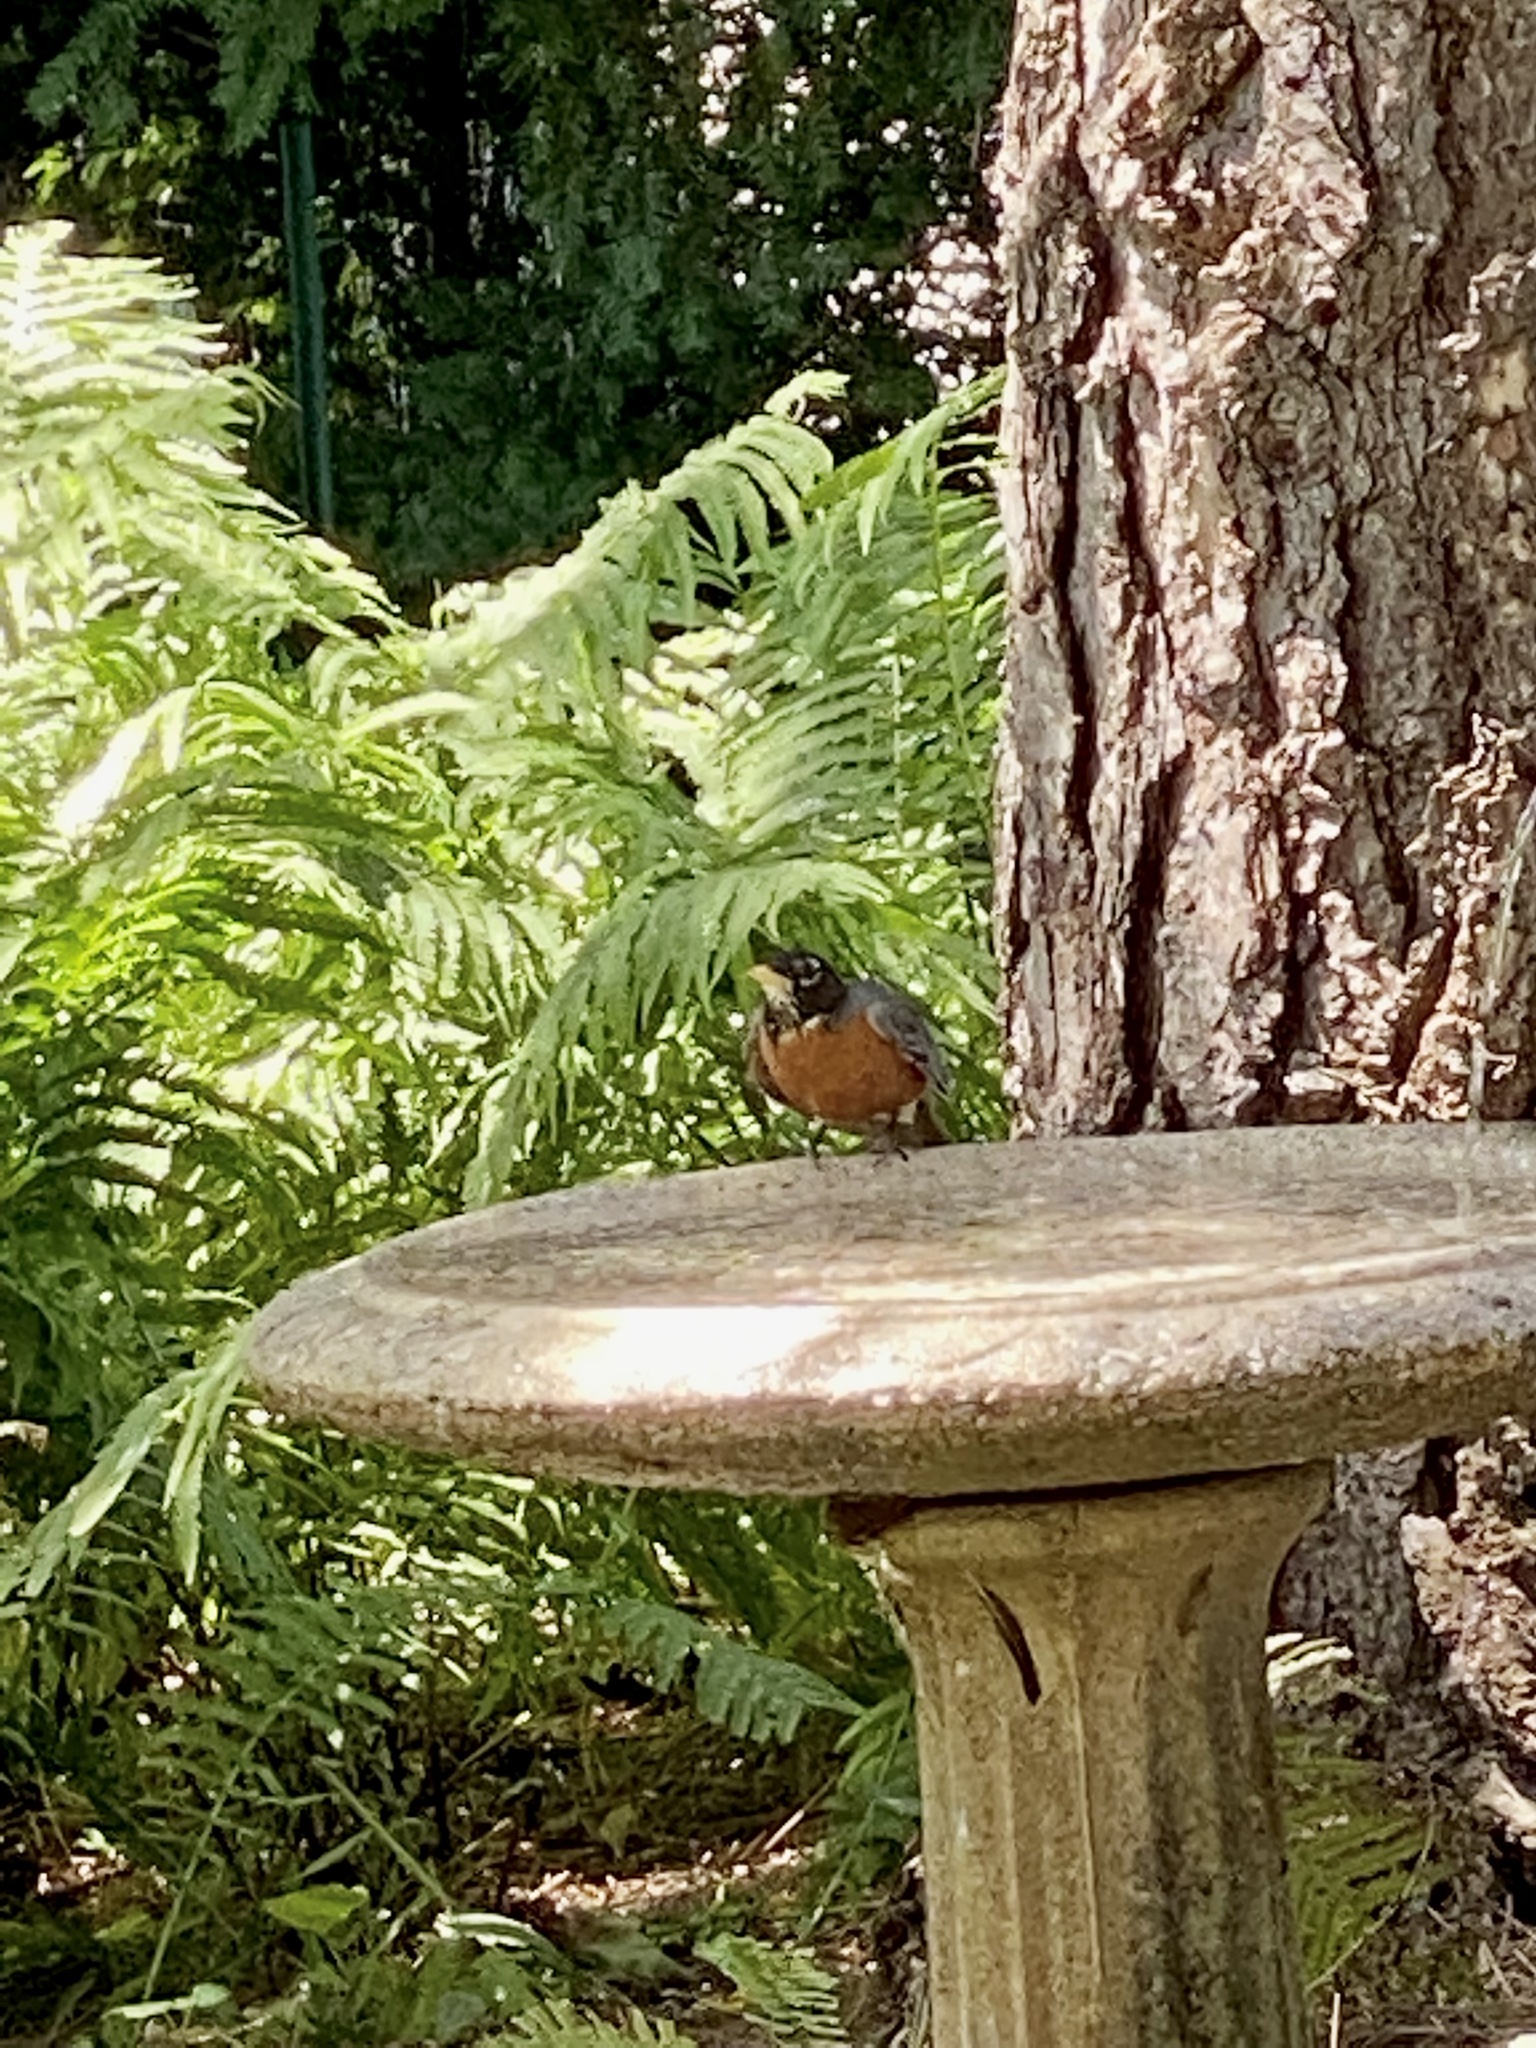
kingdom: Animalia
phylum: Chordata
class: Aves
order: Passeriformes
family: Turdidae
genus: Turdus
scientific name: Turdus migratorius
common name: American robin
